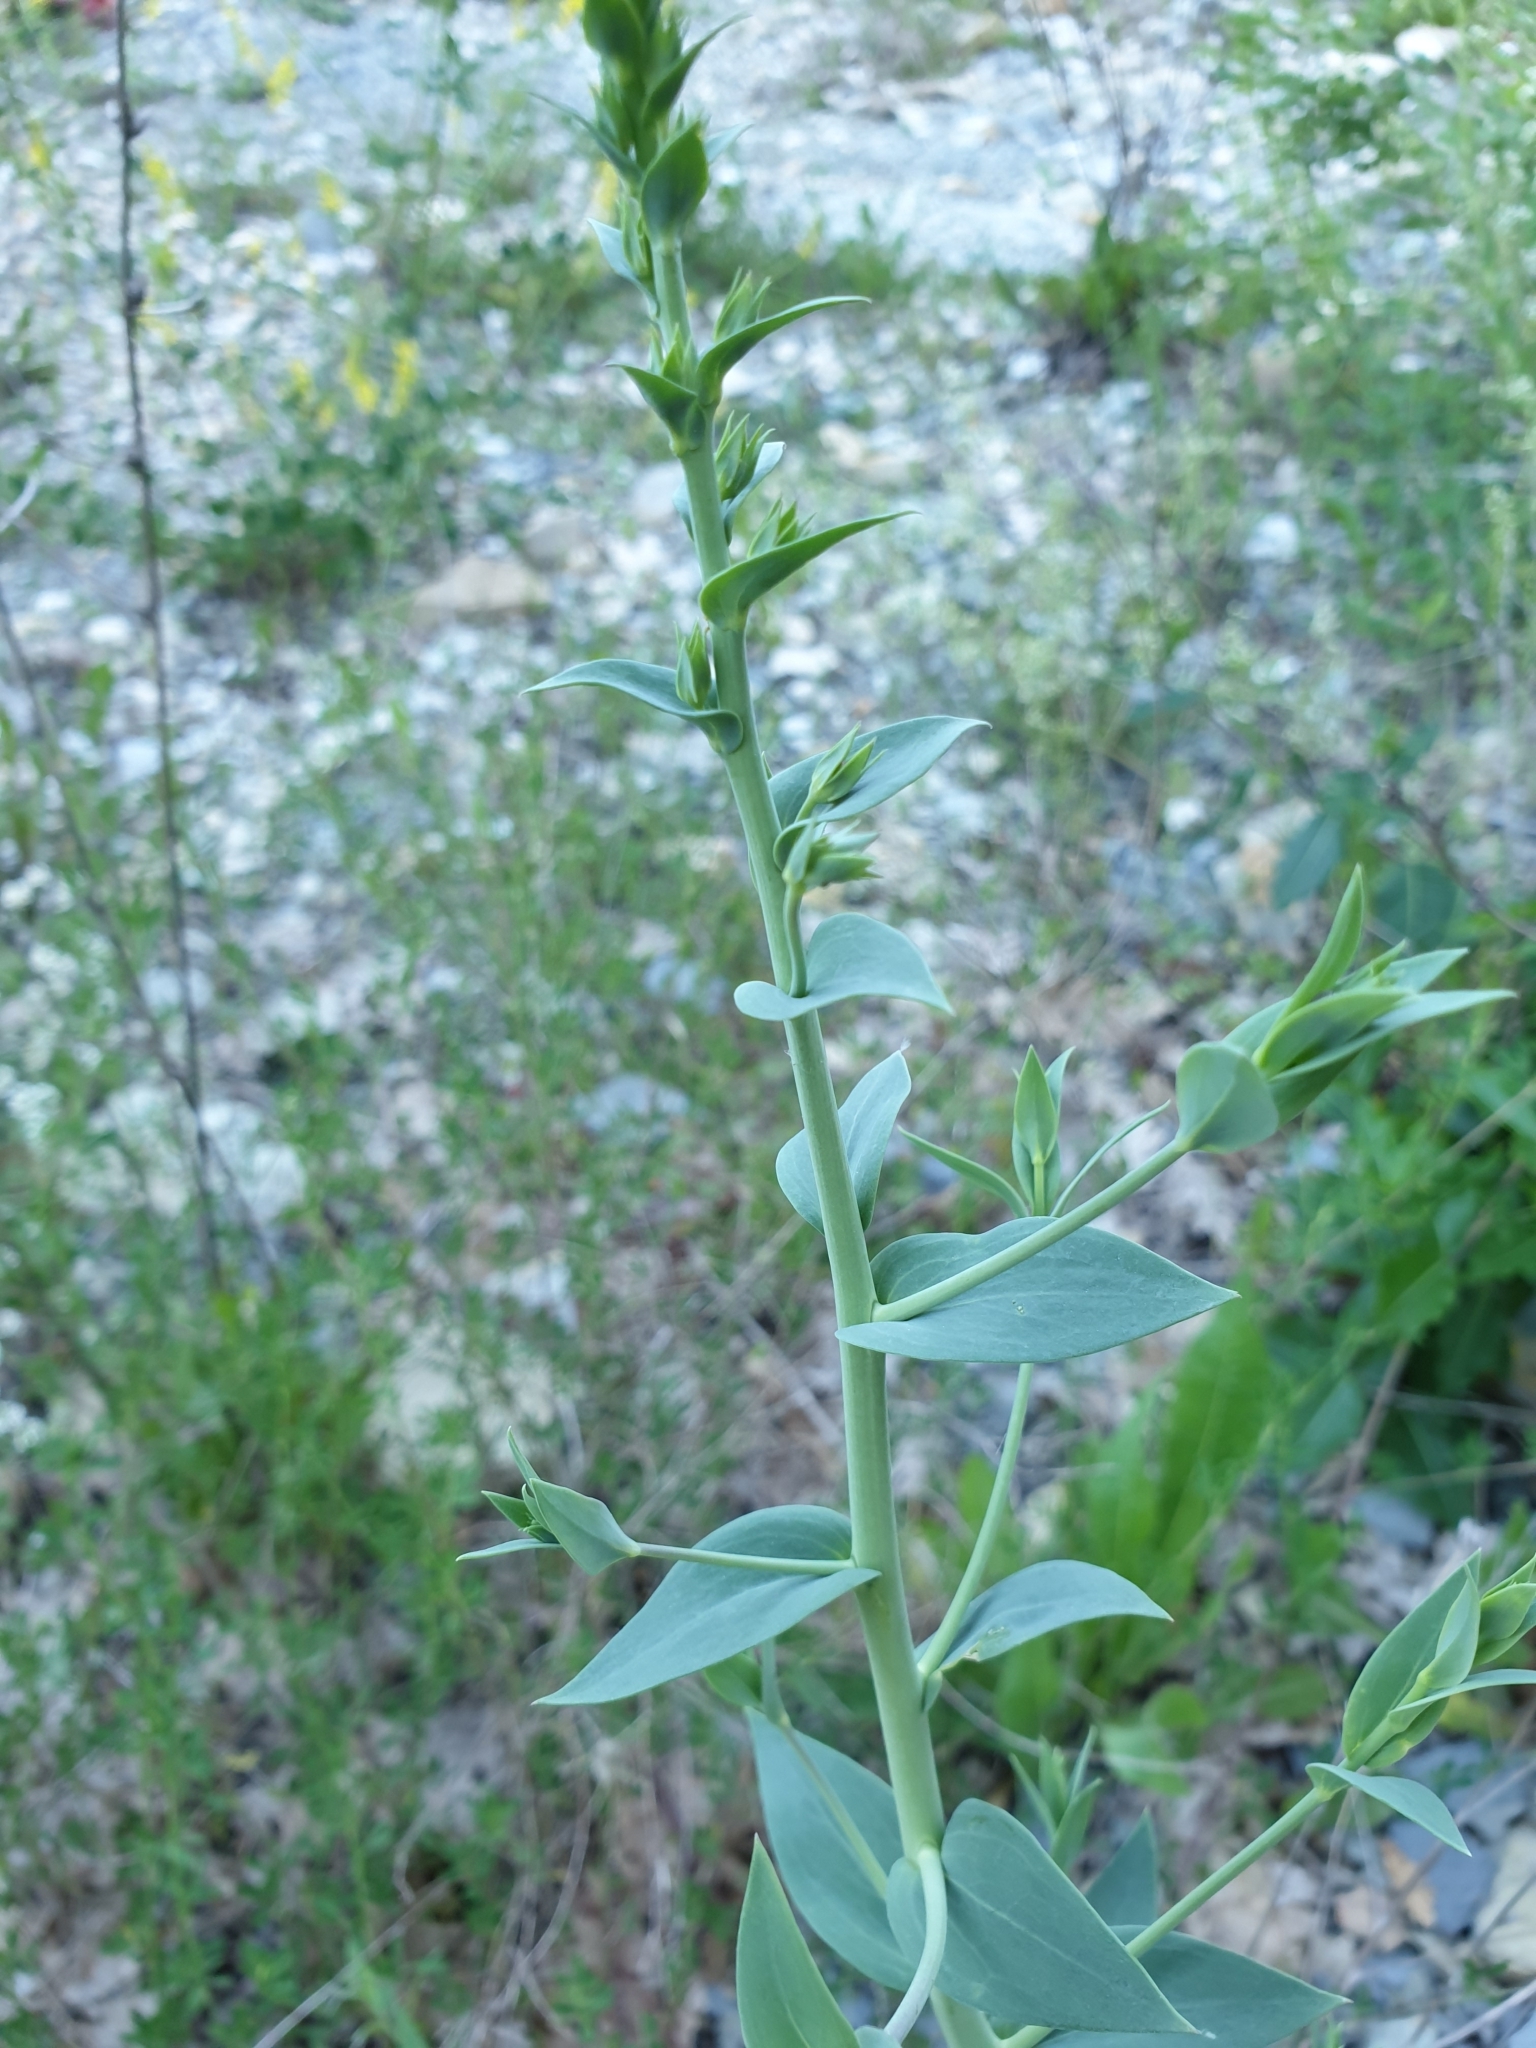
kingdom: Plantae
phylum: Tracheophyta
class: Magnoliopsida
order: Lamiales
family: Plantaginaceae
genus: Linaria
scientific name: Linaria genistifolia
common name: Broomleaf toadflax
